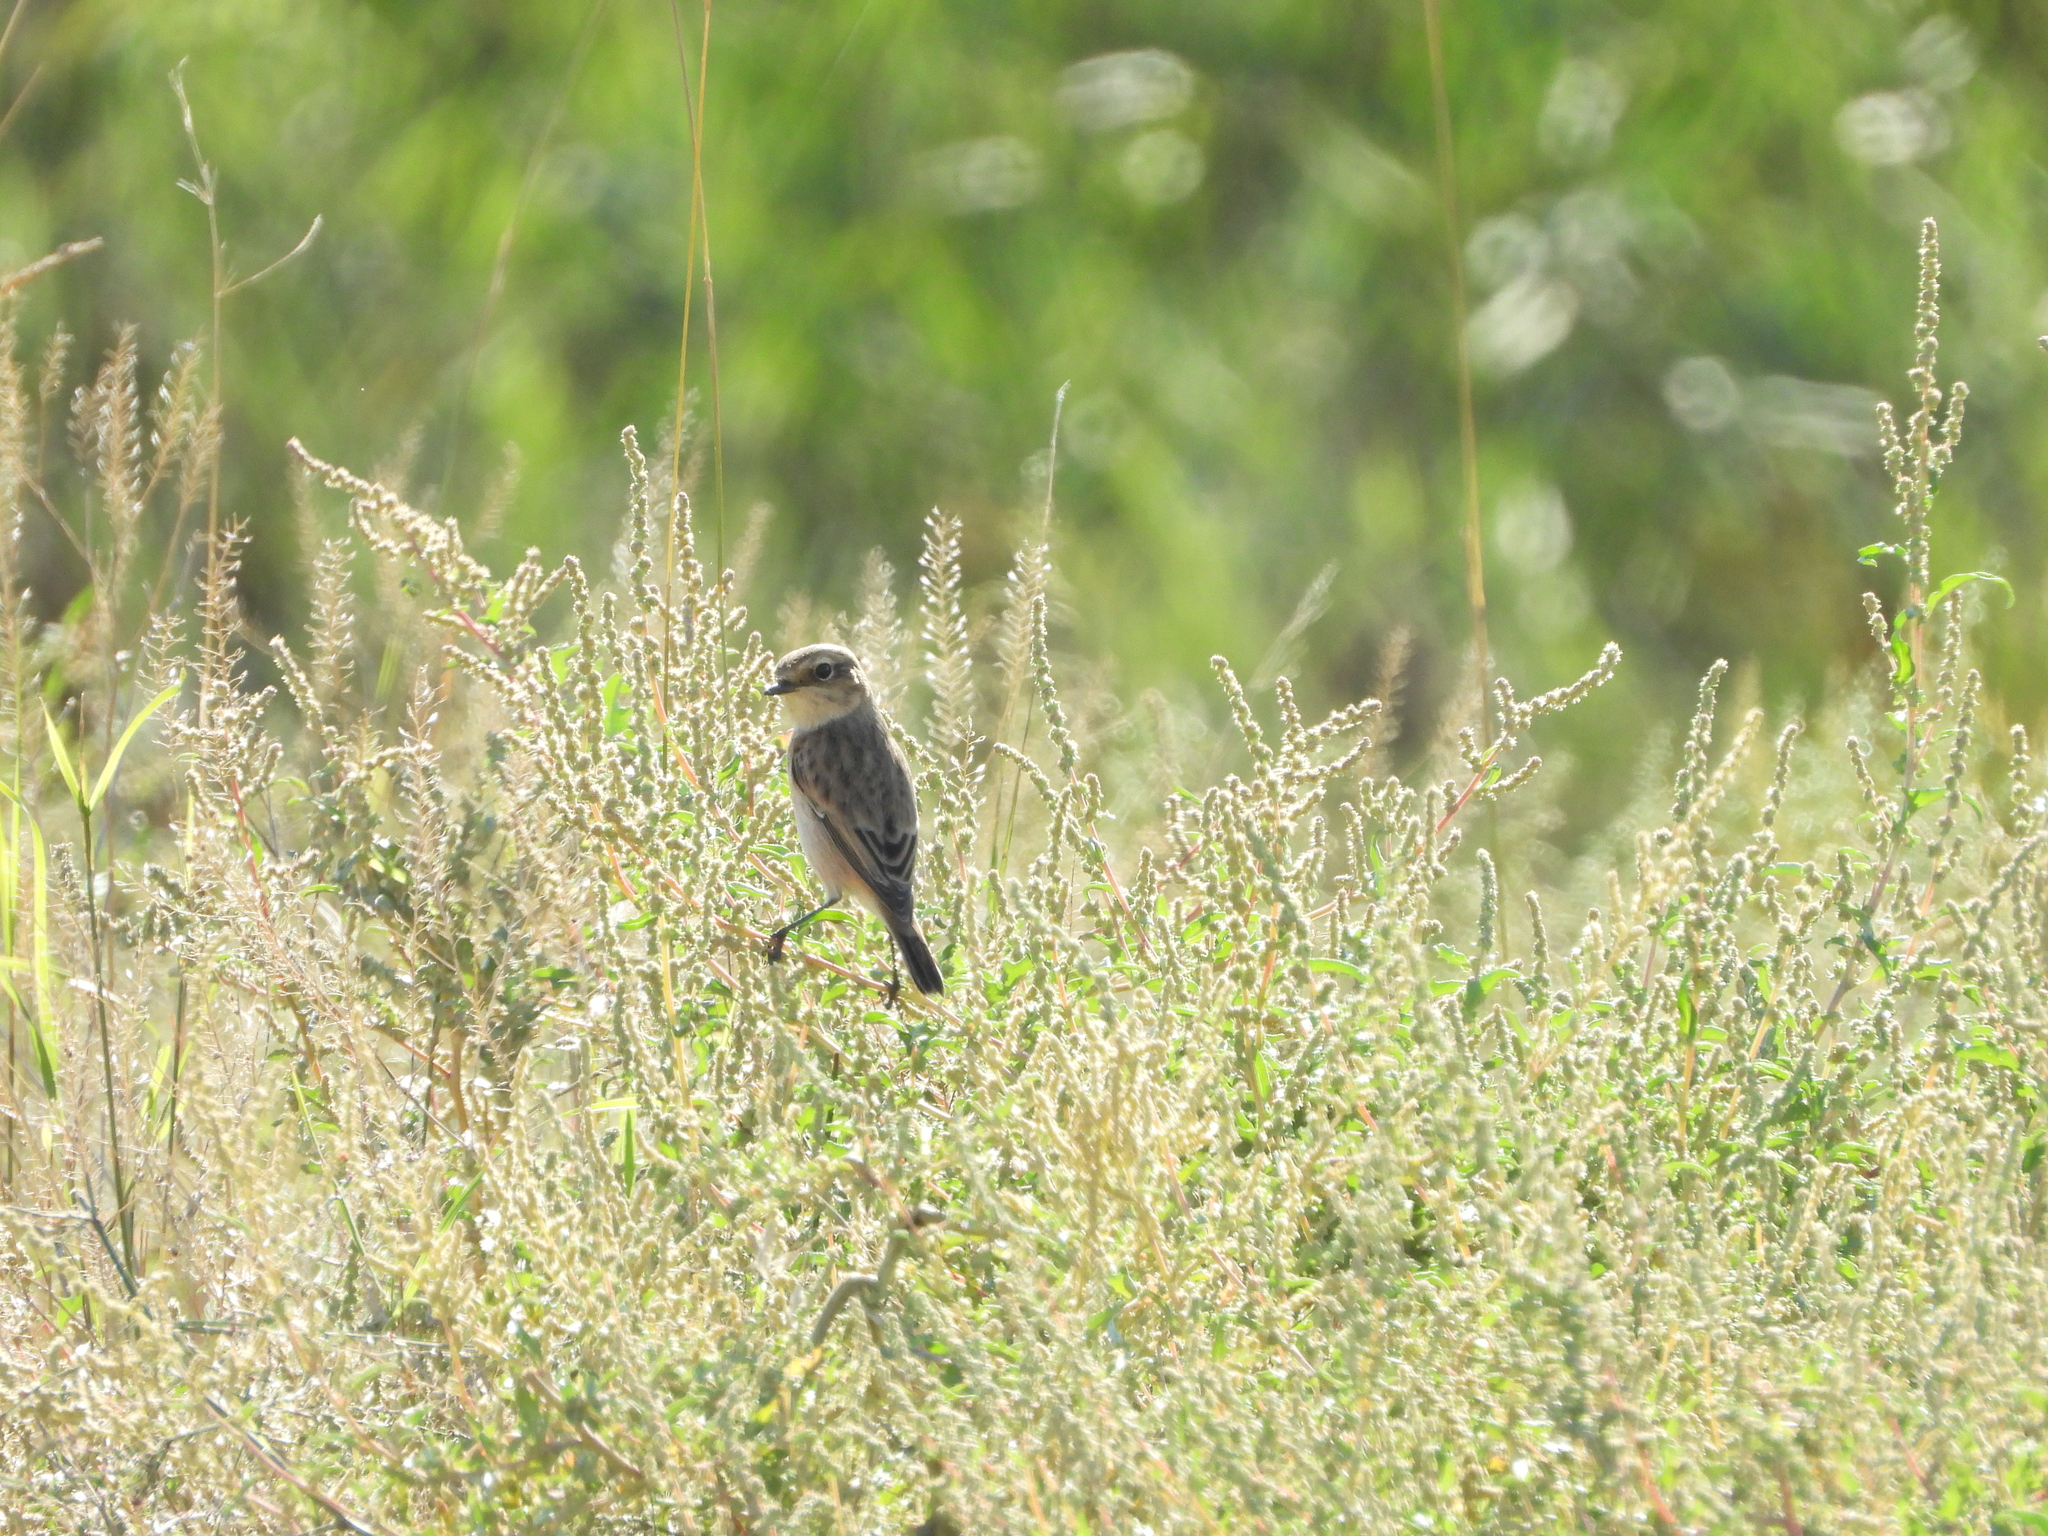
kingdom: Animalia
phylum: Chordata
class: Aves
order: Passeriformes
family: Muscicapidae
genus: Saxicola
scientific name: Saxicola maurus
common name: Siberian stonechat
